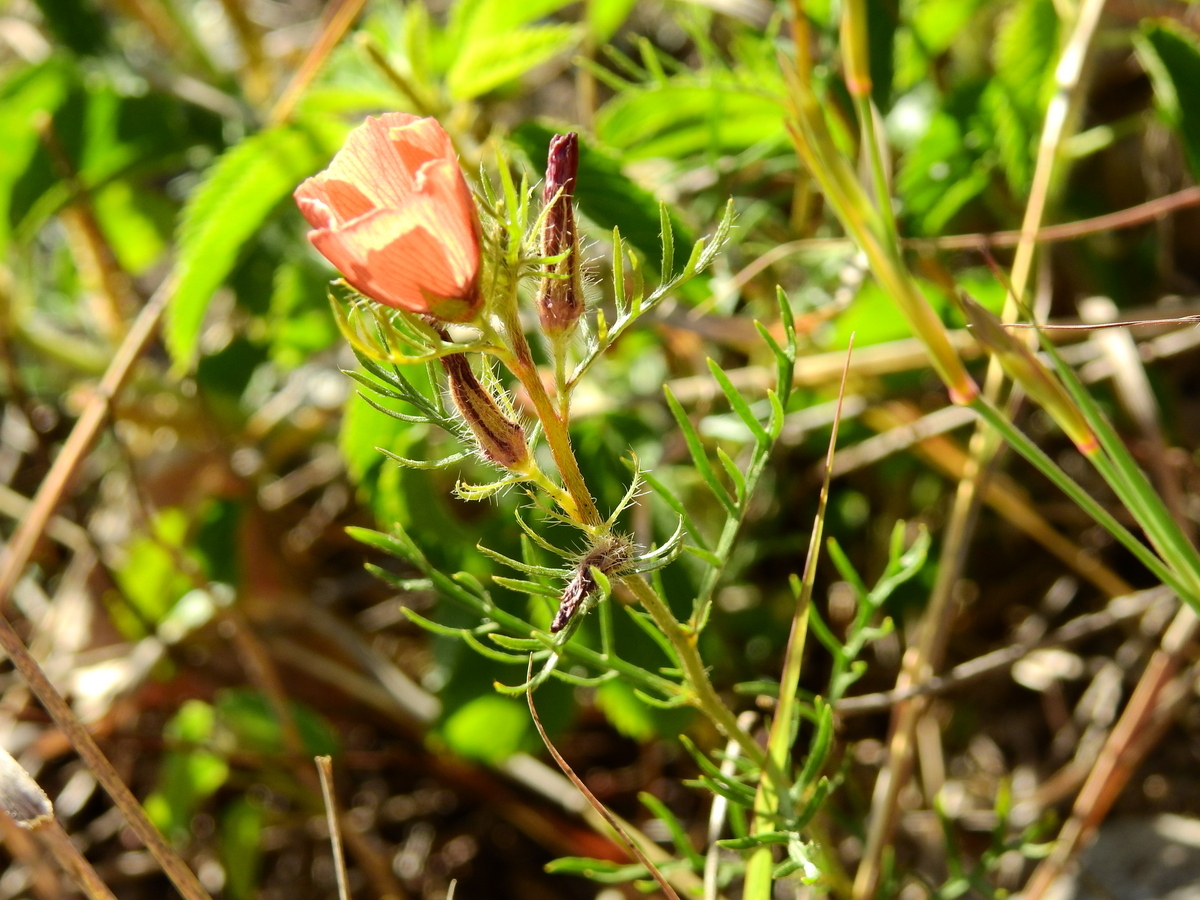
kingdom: Plantae
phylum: Tracheophyta
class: Magnoliopsida
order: Malpighiales
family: Turneraceae
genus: Turnera
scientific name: Turnera sidoides
